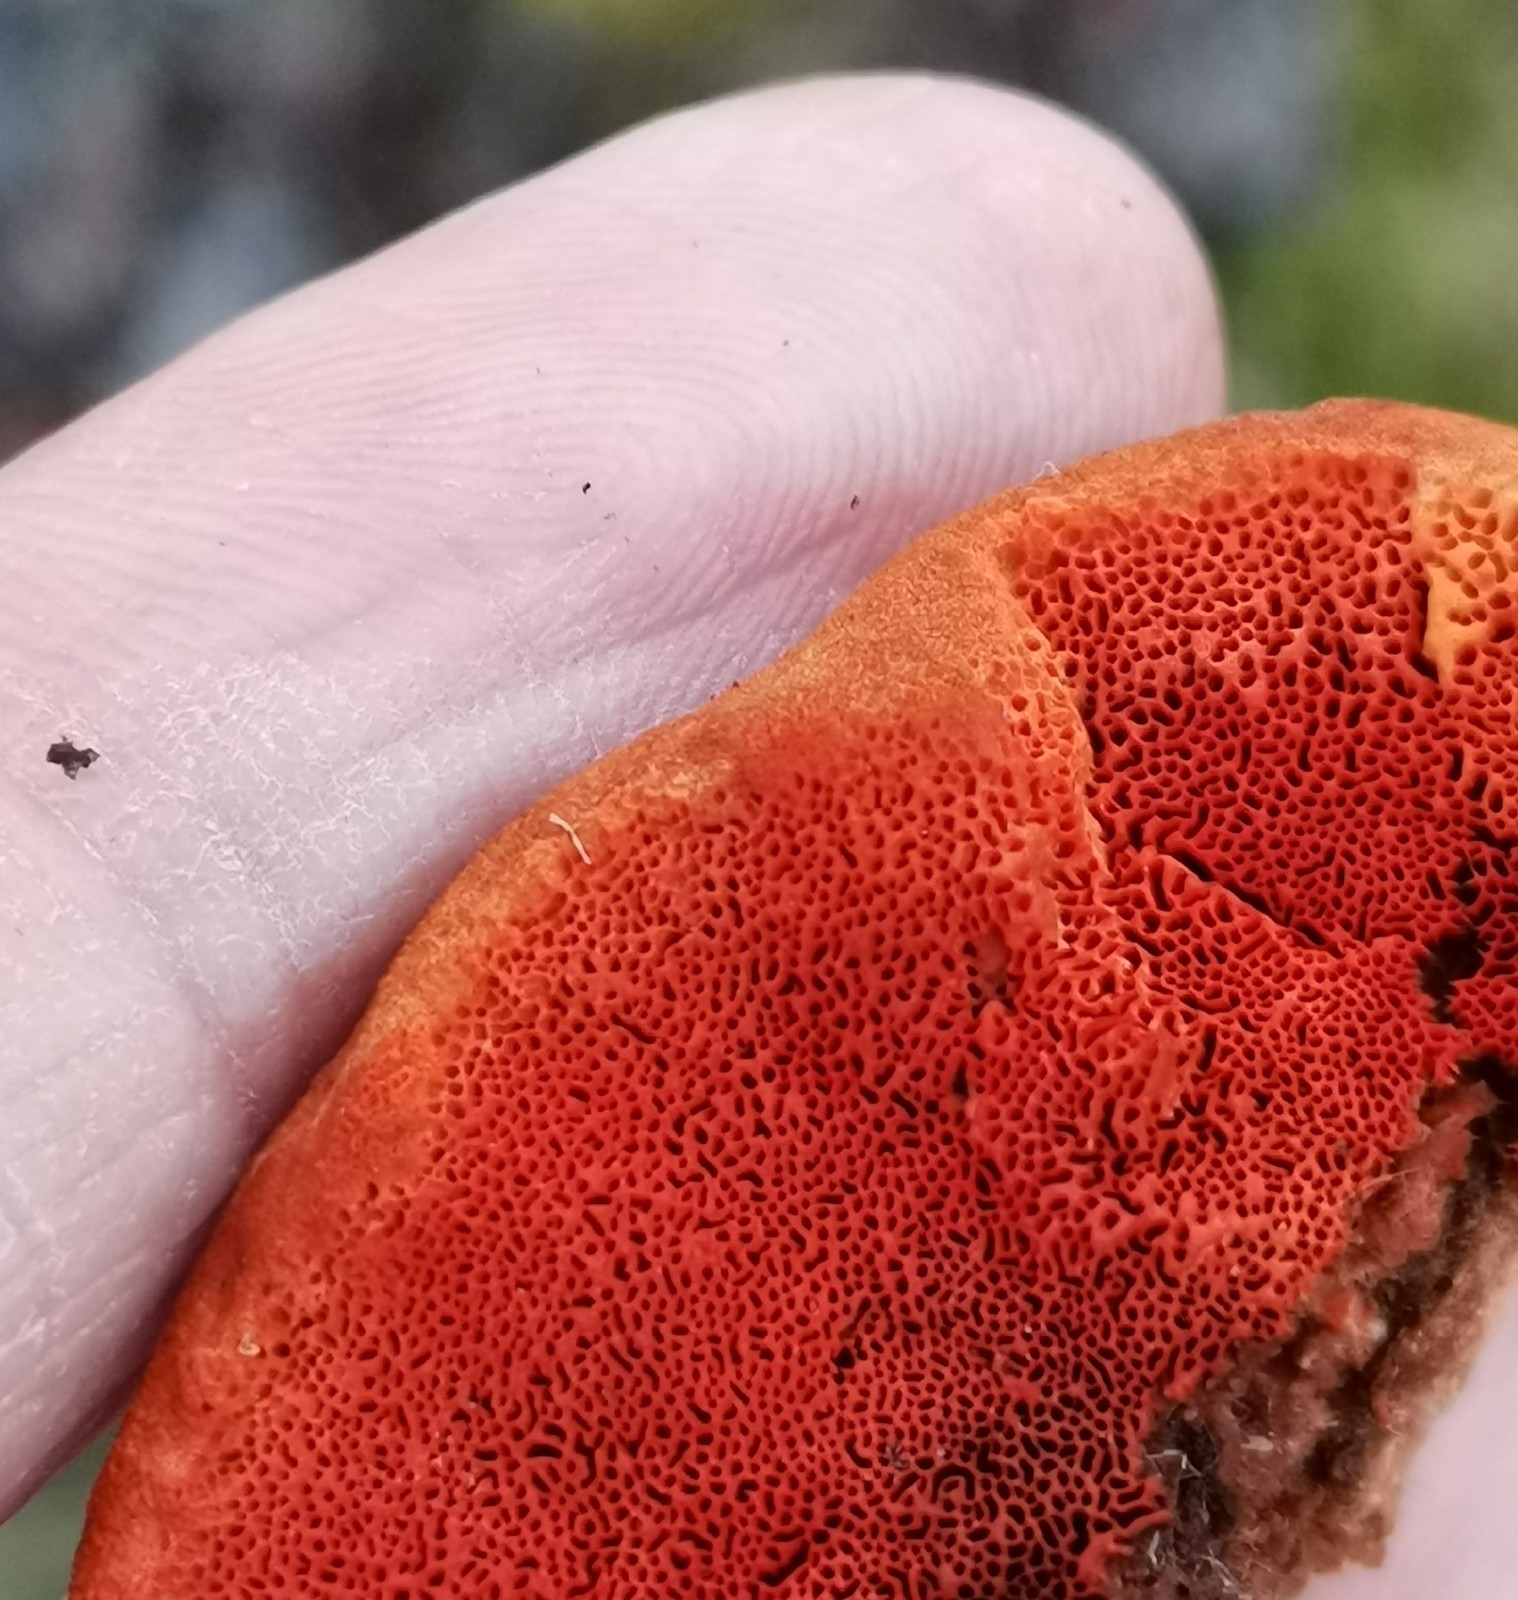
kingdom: Fungi
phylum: Basidiomycota
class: Agaricomycetes
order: Polyporales
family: Polyporaceae
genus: Trametes
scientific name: Trametes cinnabarina
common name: Northern cinnabar polypore
